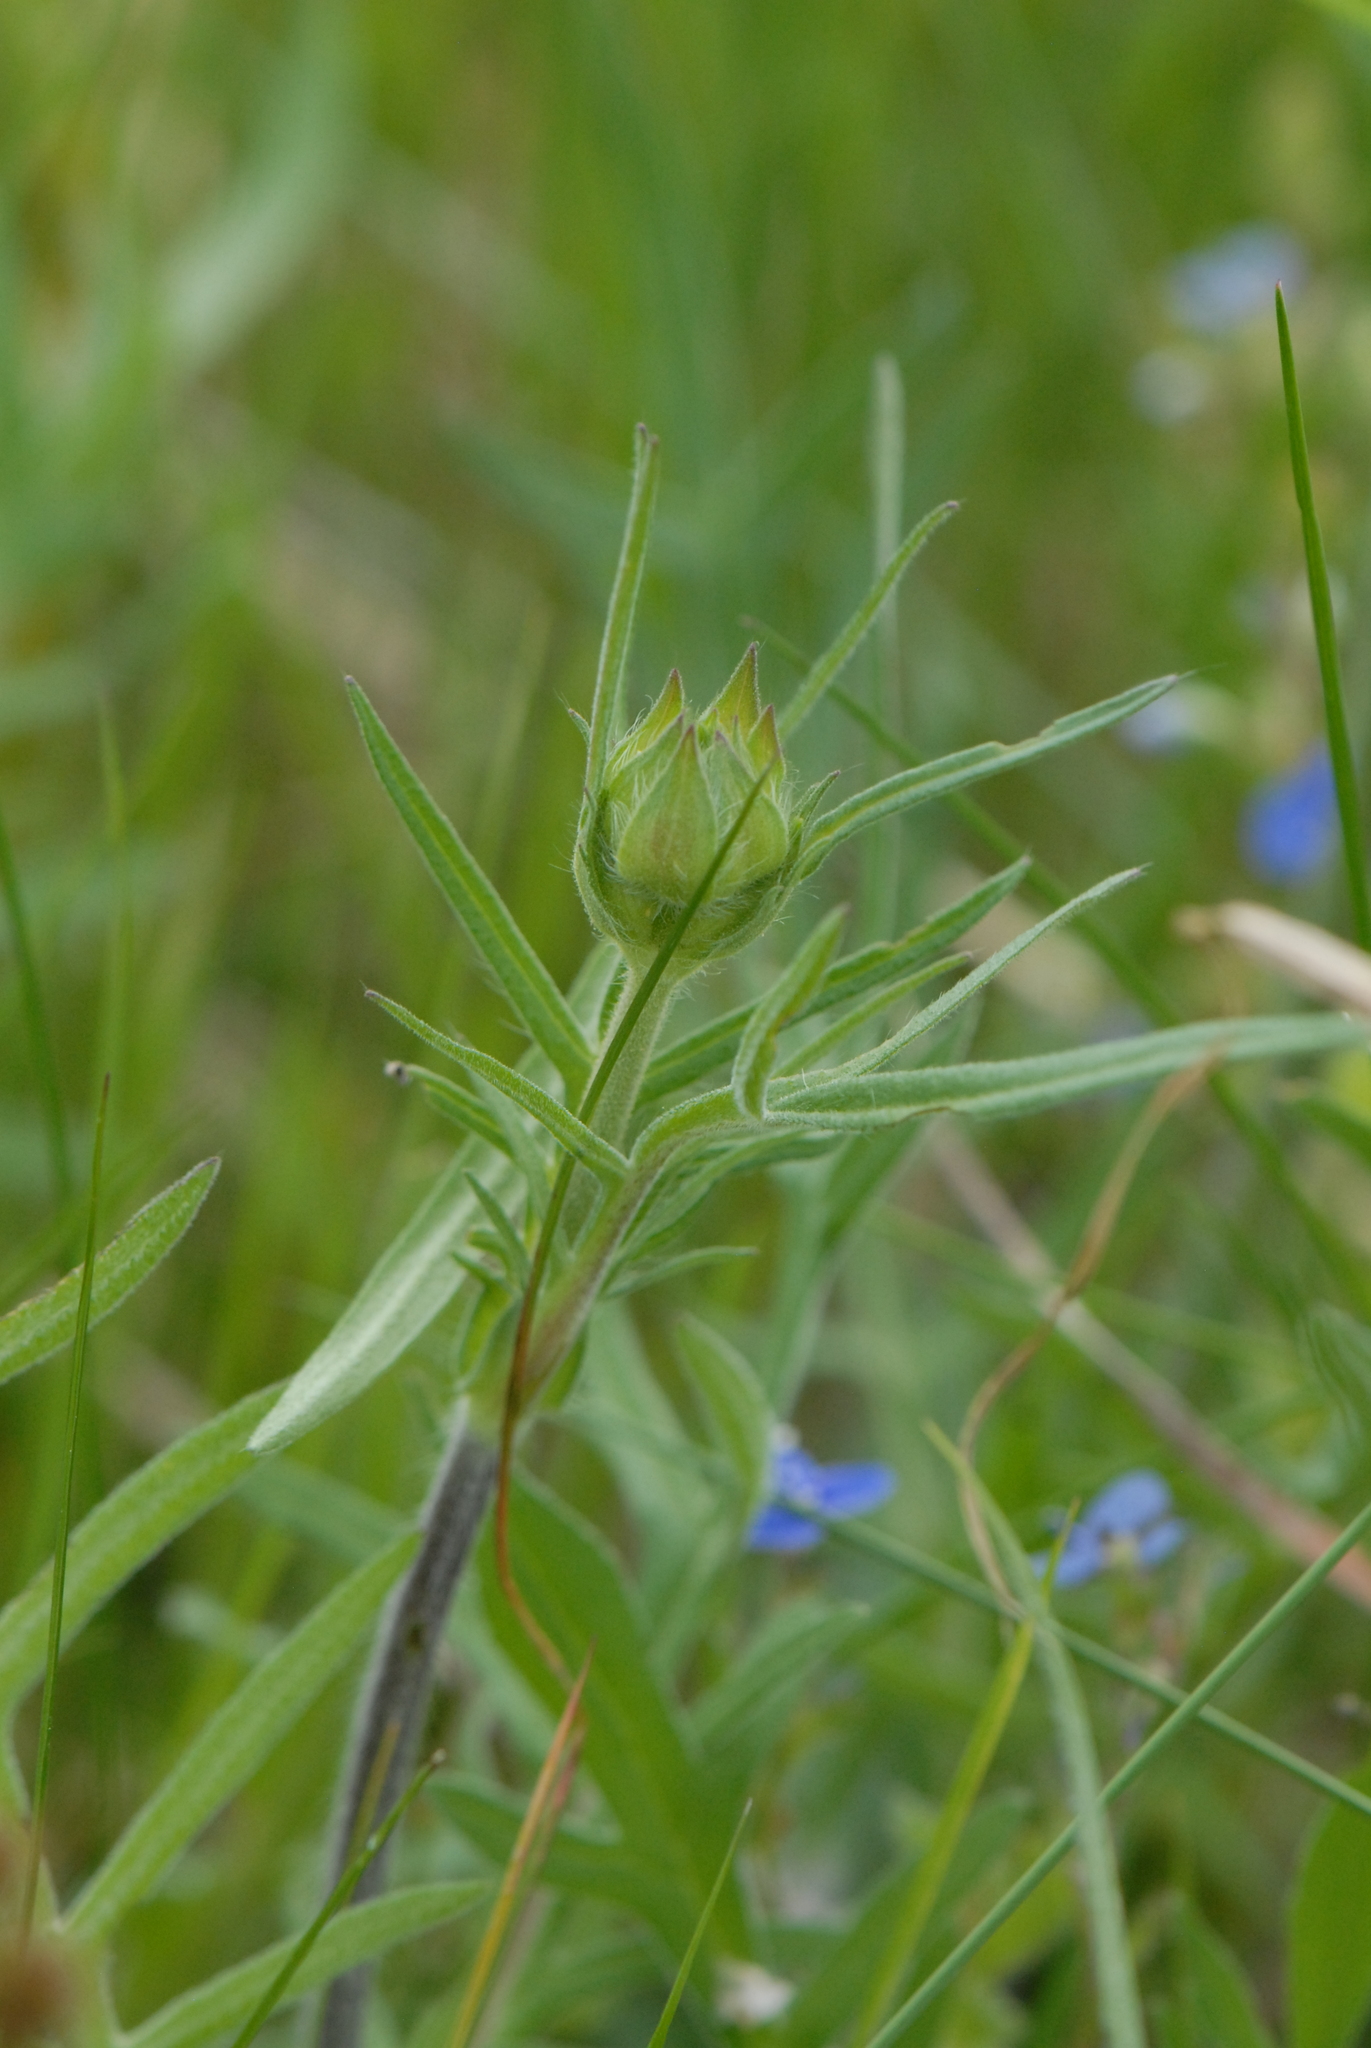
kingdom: Plantae
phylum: Tracheophyta
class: Magnoliopsida
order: Dipsacales
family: Caprifoliaceae
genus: Knautia
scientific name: Knautia arvensis
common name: Field scabiosa
